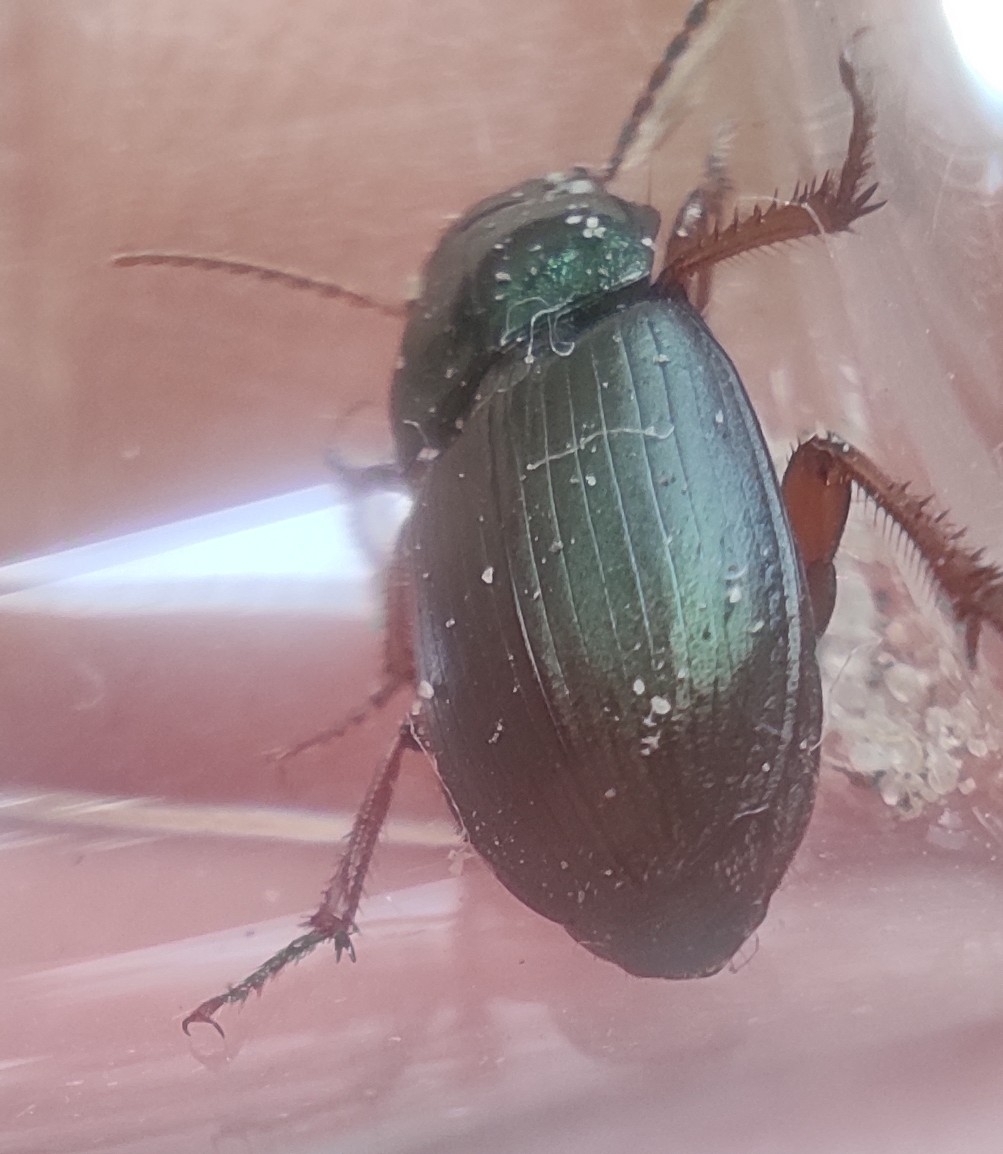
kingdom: Animalia
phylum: Arthropoda
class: Insecta
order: Coleoptera
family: Carabidae
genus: Harpalus
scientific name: Harpalus affinis
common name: Polychrome harp ground beetle
